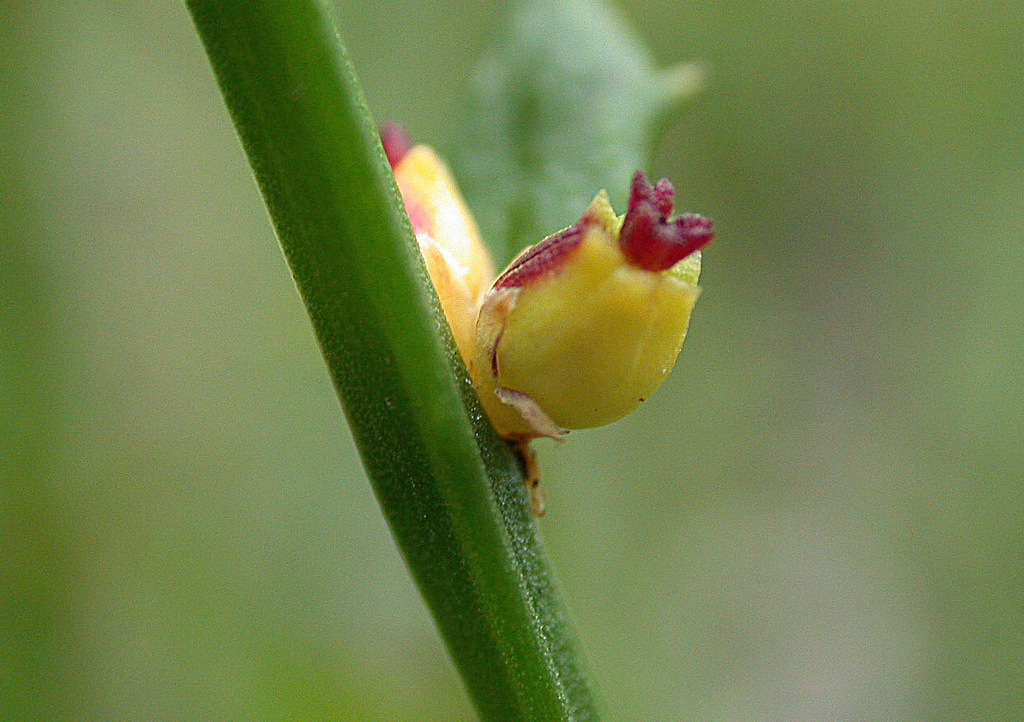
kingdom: Plantae
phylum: Tracheophyta
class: Magnoliopsida
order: Malpighiales
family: Euphorbiaceae
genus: Amperea
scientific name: Amperea xiphoclada
